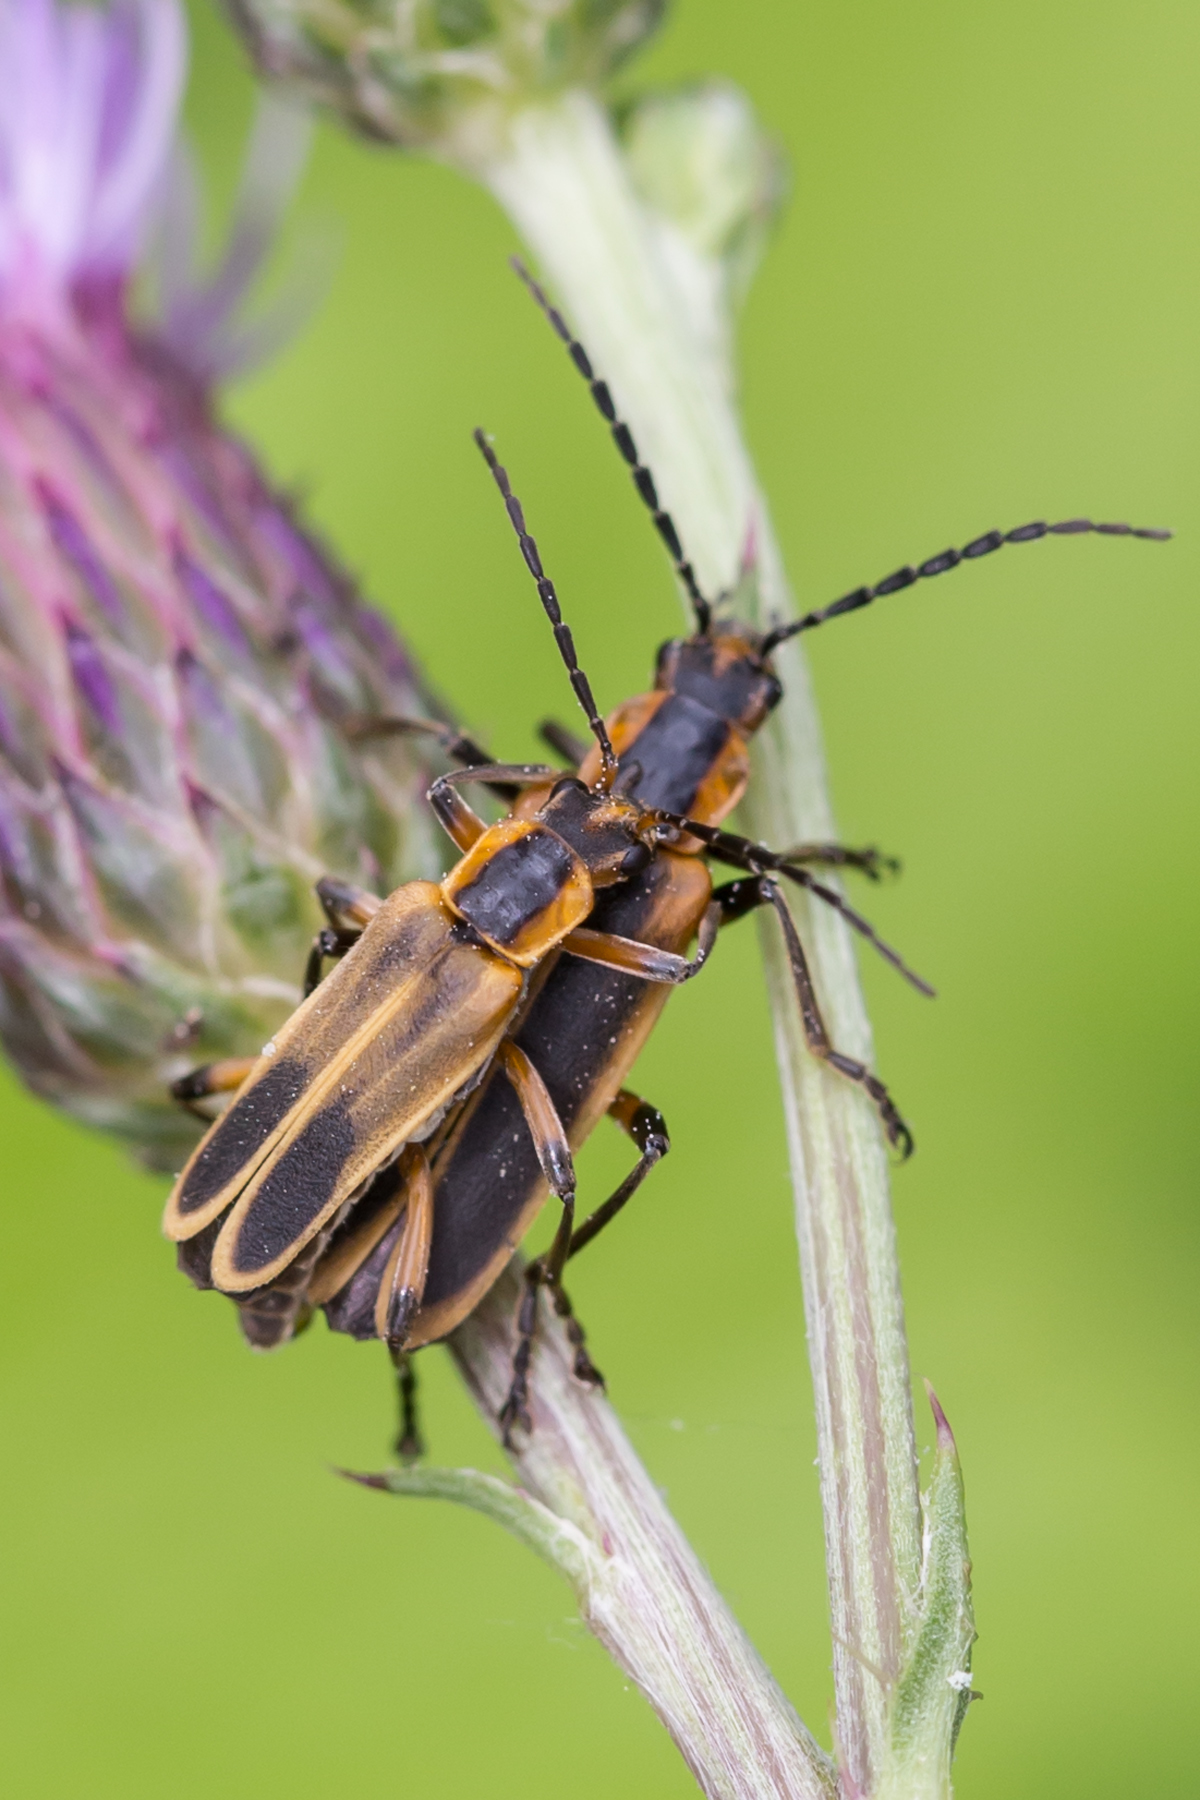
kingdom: Animalia
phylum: Arthropoda
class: Insecta
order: Coleoptera
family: Cantharidae
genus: Chauliognathus
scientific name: Chauliognathus marginatus
